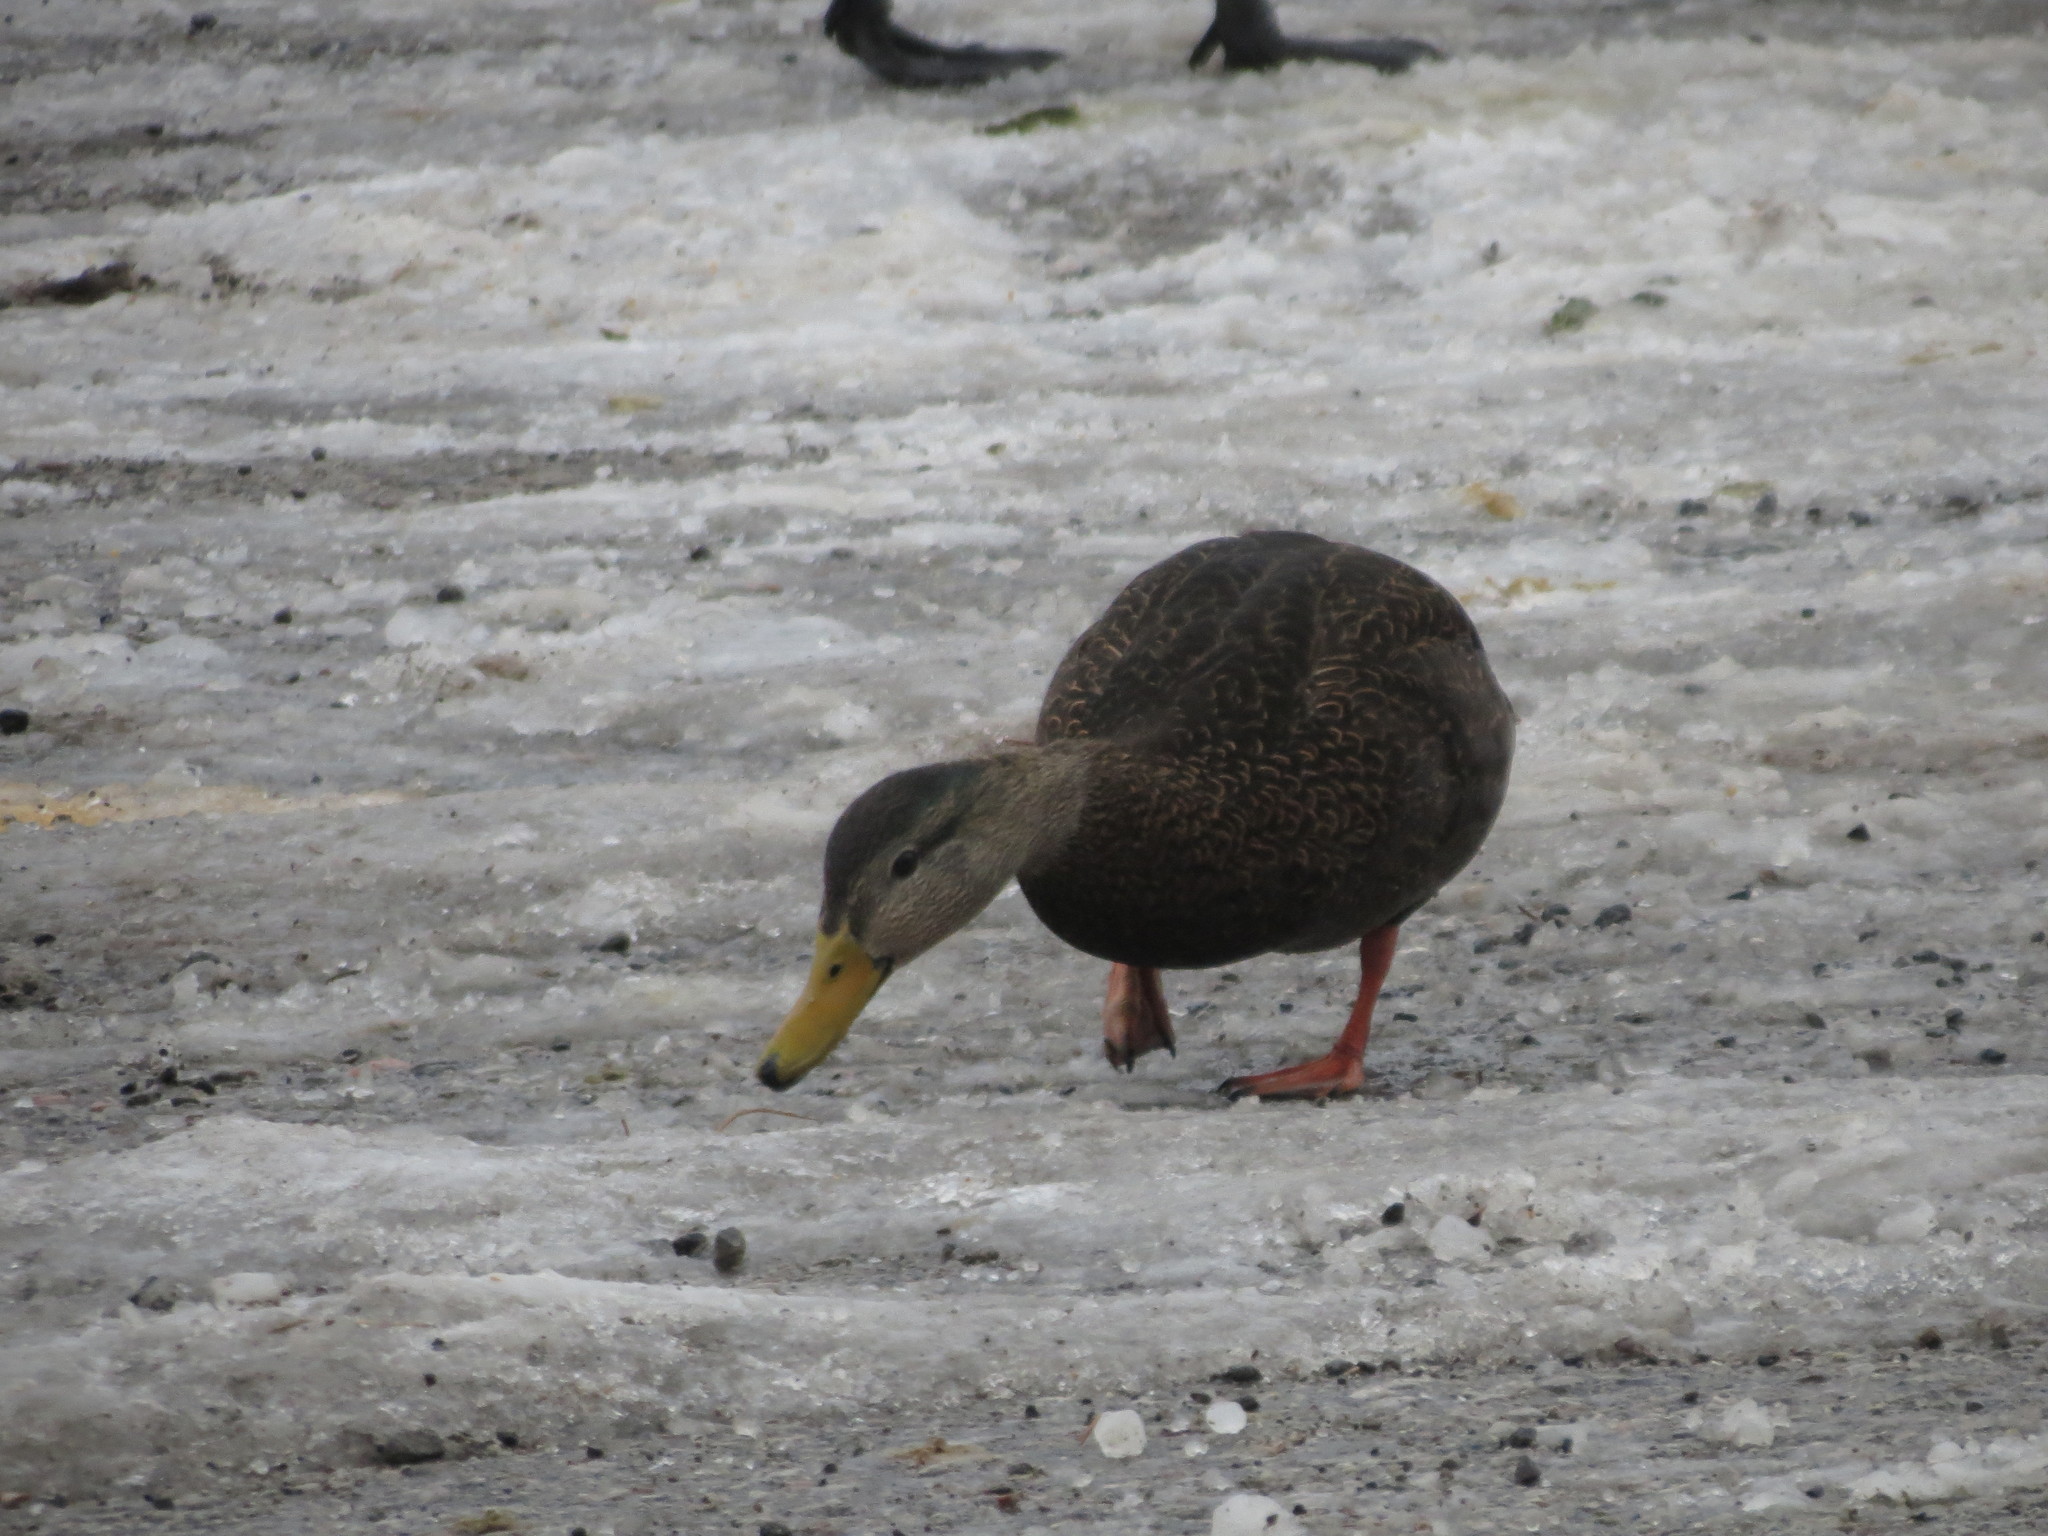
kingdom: Animalia
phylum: Chordata
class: Aves
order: Anseriformes
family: Anatidae
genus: Anas
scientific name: Anas rubripes
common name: American black duck
